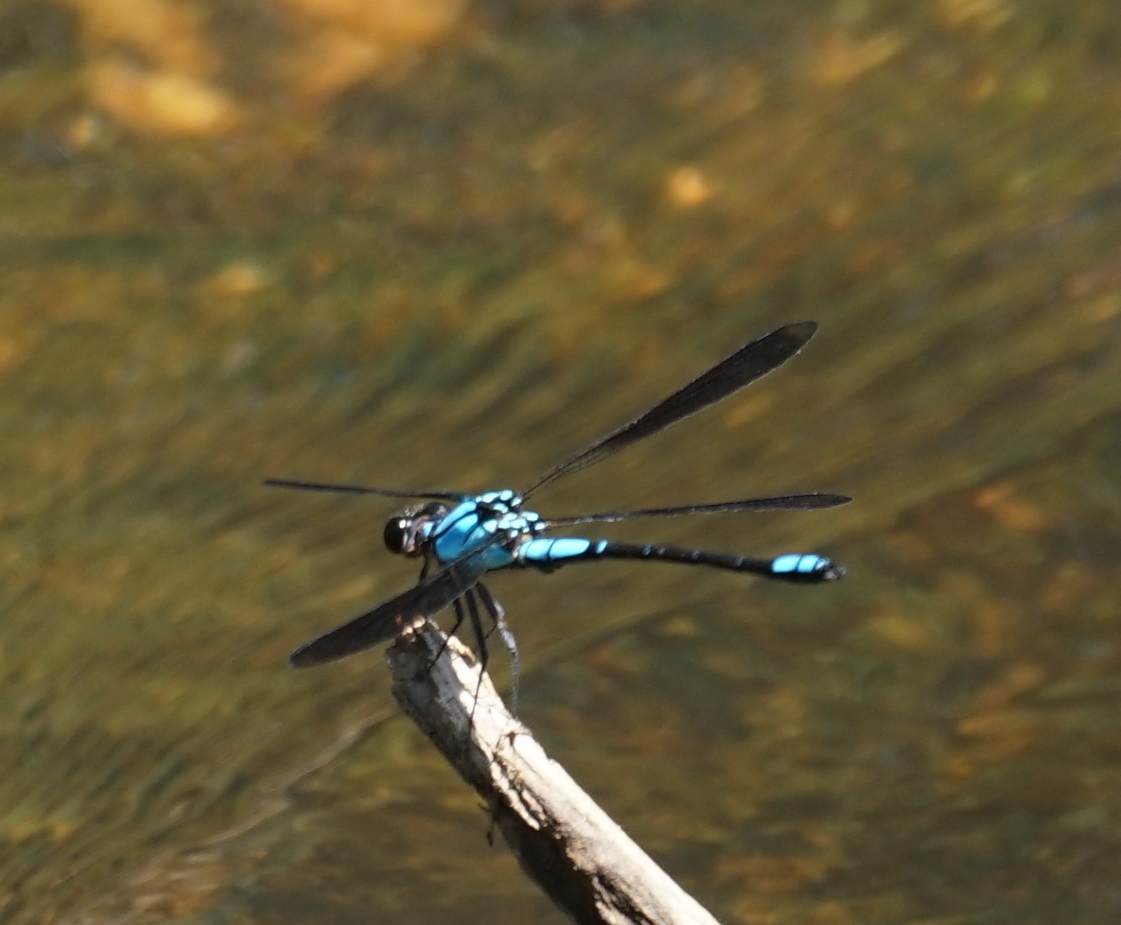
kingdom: Animalia
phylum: Arthropoda
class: Insecta
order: Odonata
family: Lestoideidae
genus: Diphlebia
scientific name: Diphlebia euphoeoides
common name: Tropical rockmaster
